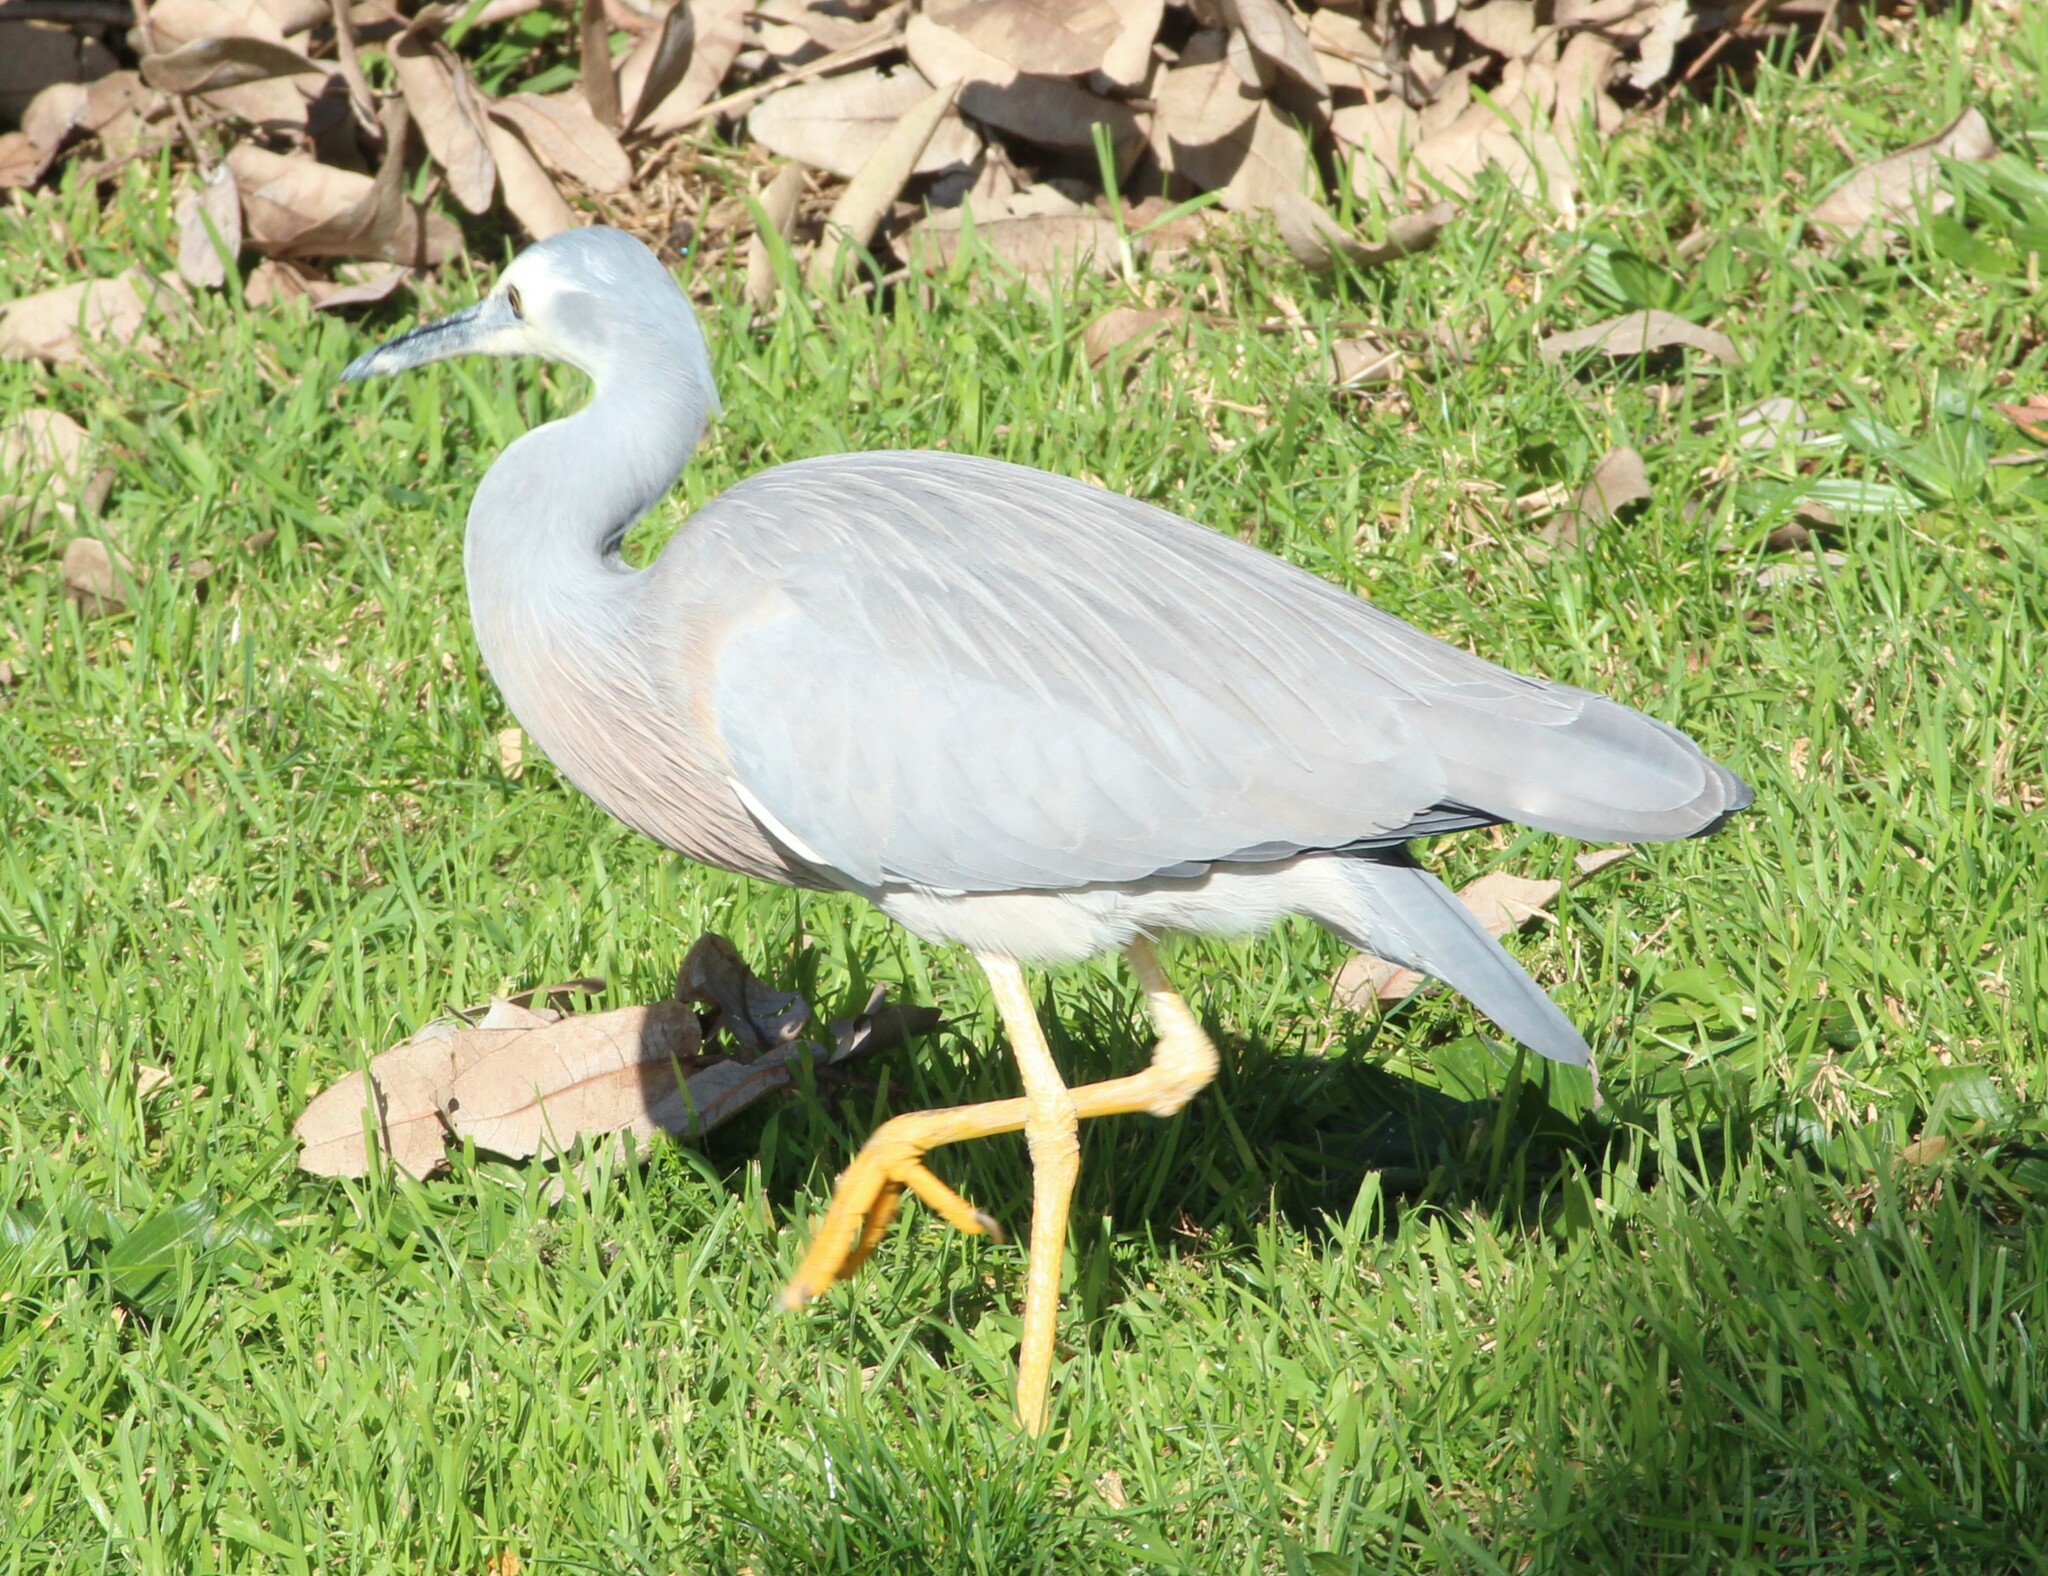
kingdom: Animalia
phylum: Chordata
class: Aves
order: Pelecaniformes
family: Ardeidae
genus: Egretta
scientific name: Egretta novaehollandiae
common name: White-faced heron
